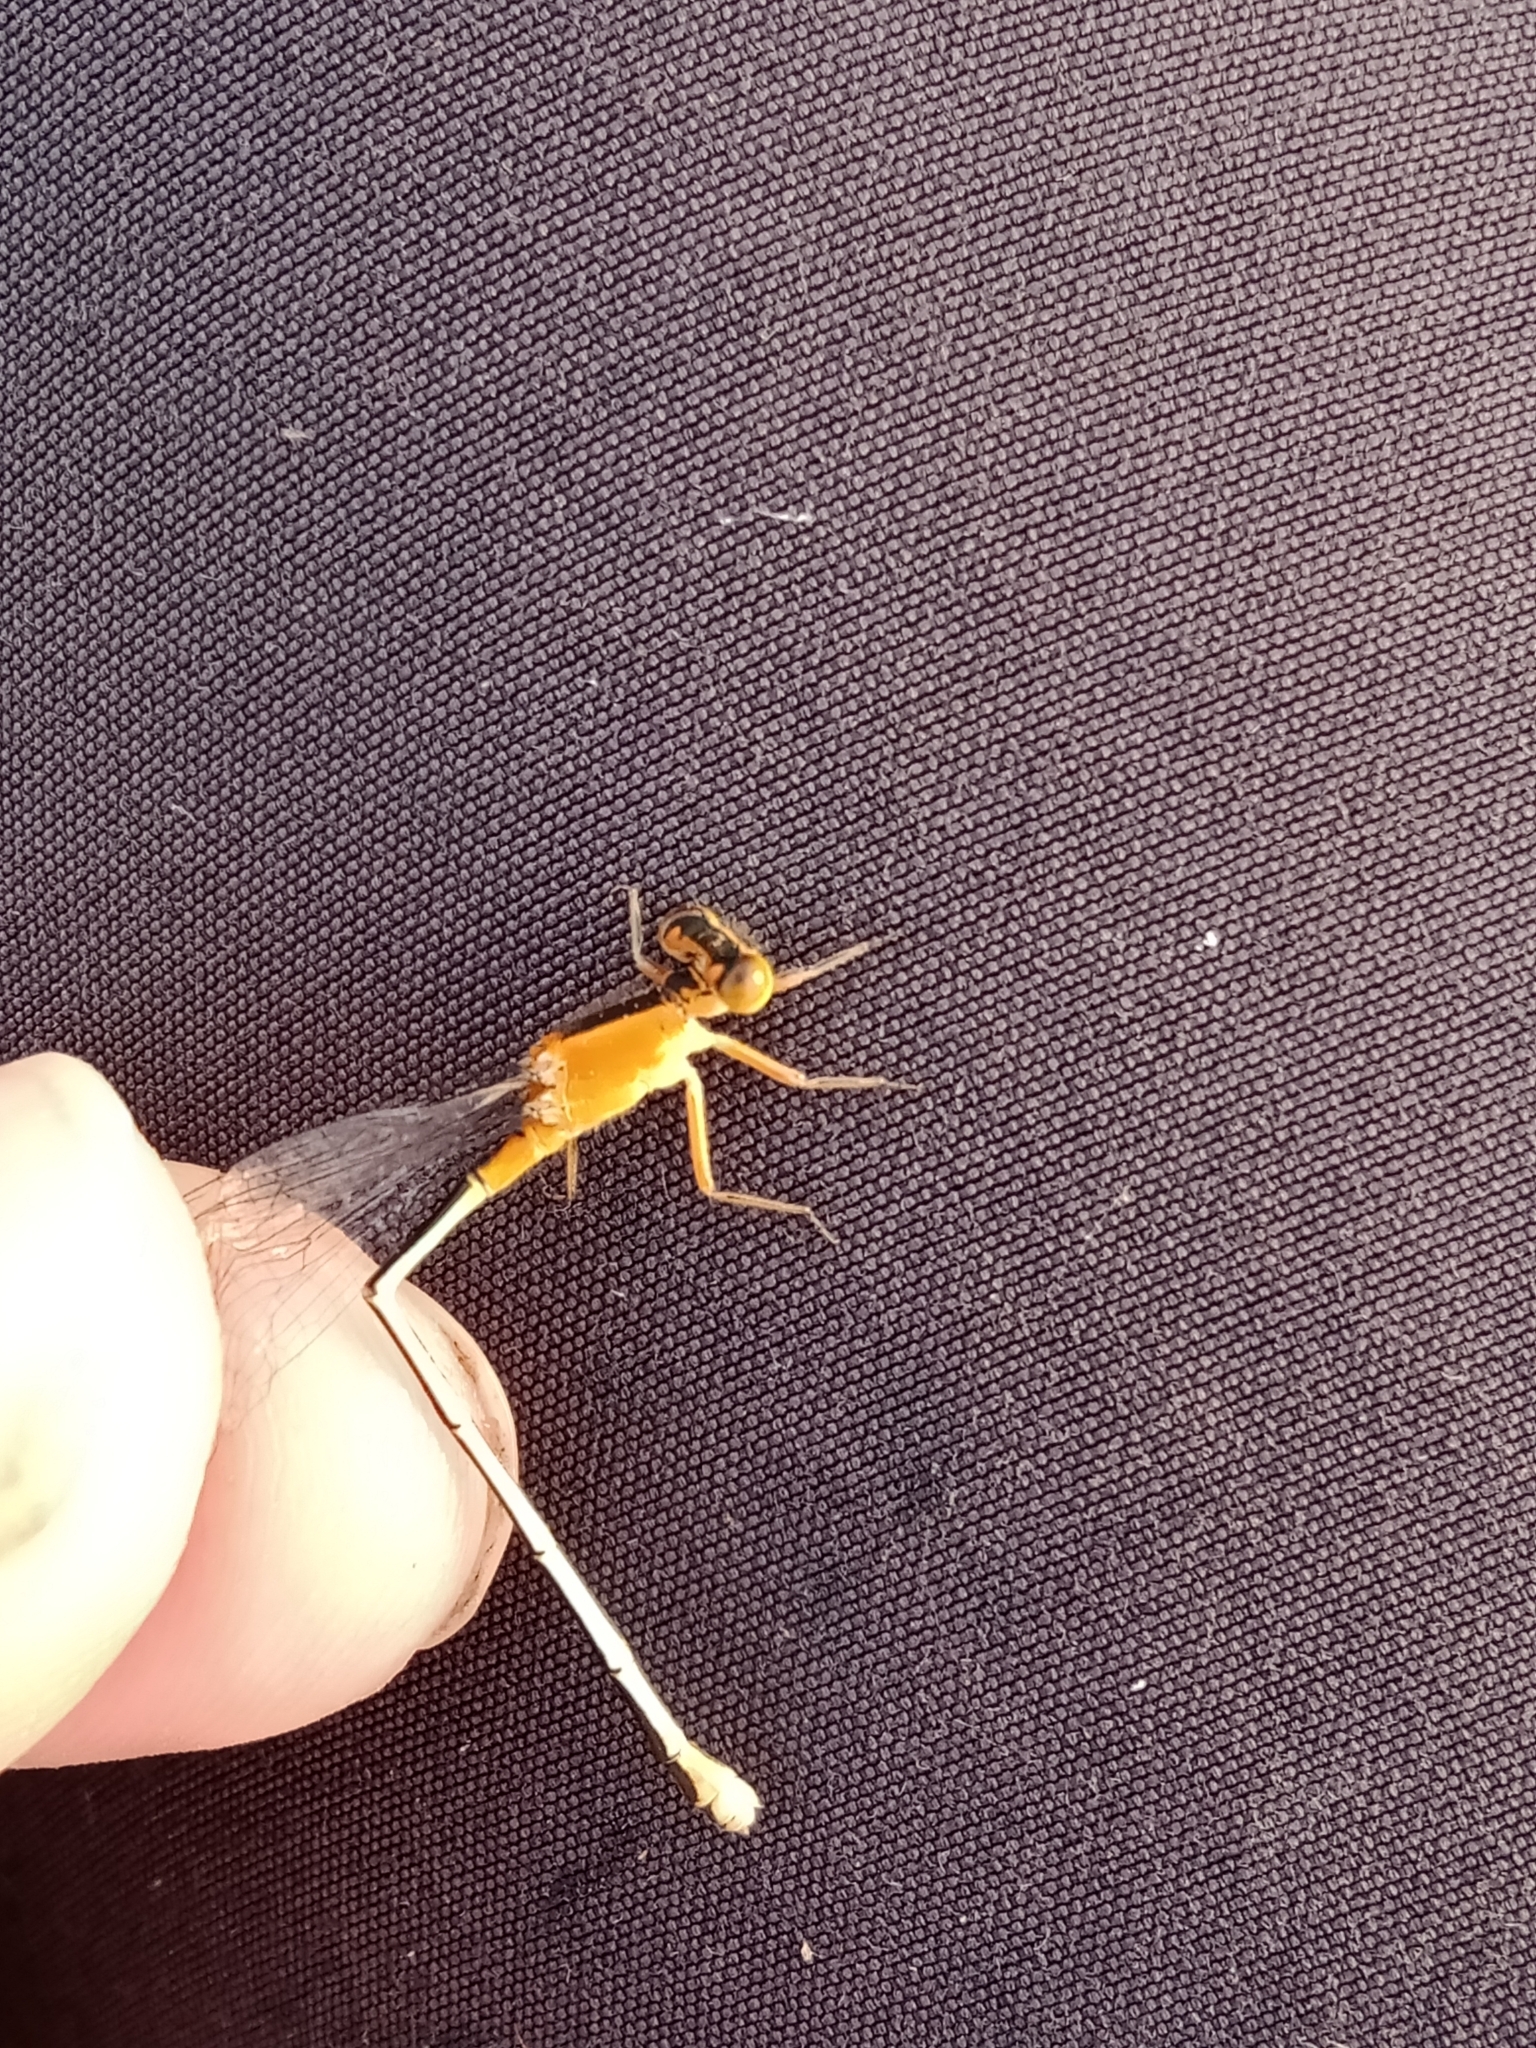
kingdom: Animalia
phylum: Arthropoda
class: Insecta
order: Odonata
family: Coenagrionidae
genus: Ischnura
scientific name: Ischnura senegalensis
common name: Tropical bluetail
